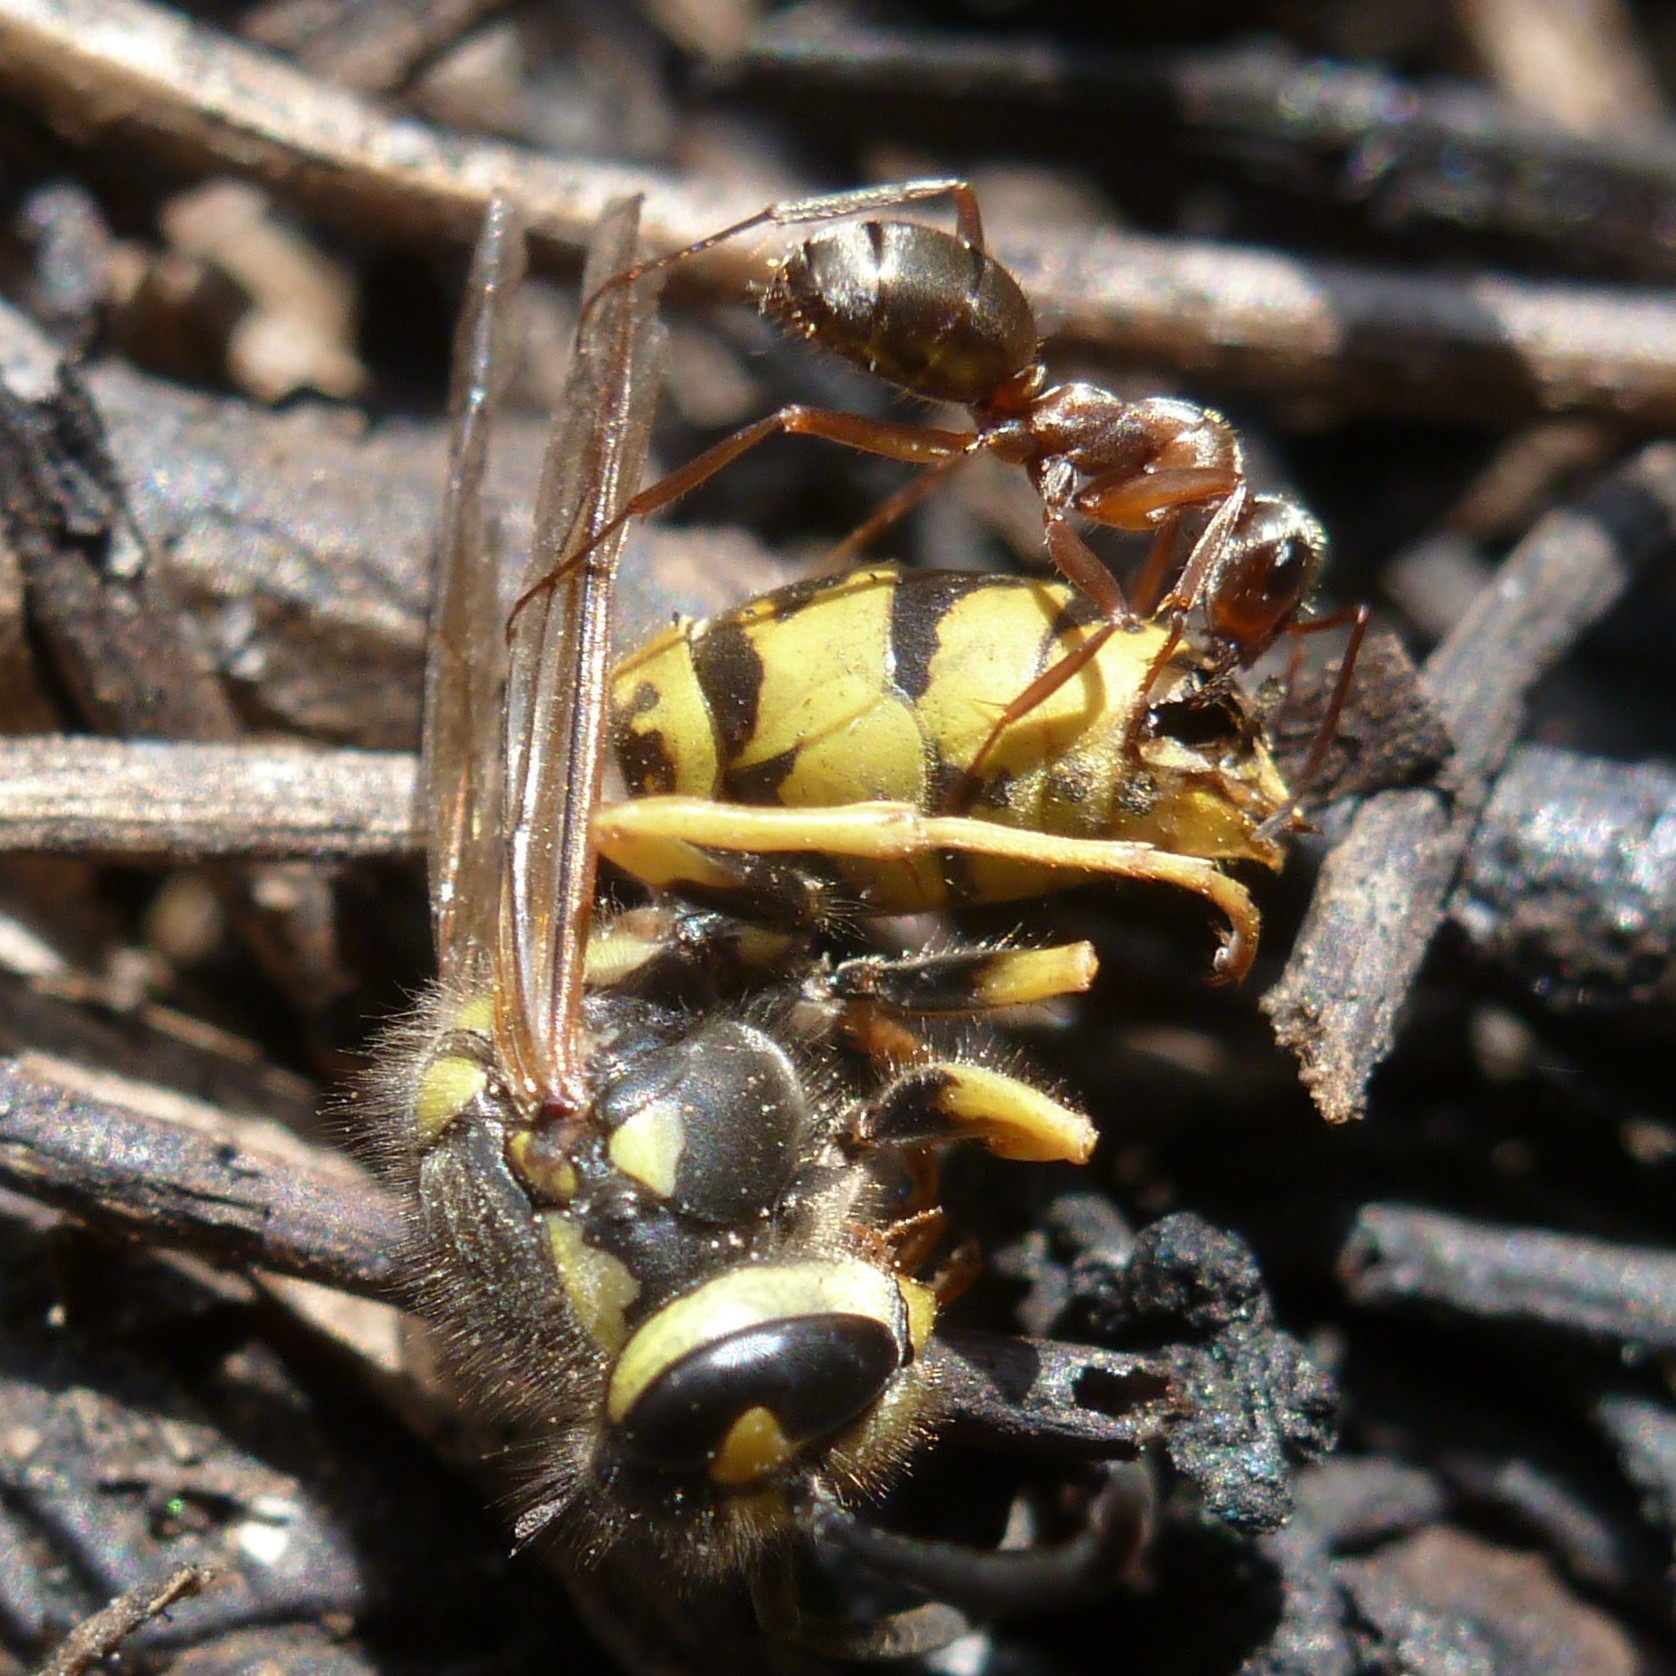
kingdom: Animalia
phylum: Arthropoda
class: Insecta
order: Hymenoptera
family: Vespidae
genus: Vespula
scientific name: Vespula germanica
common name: German wasp
